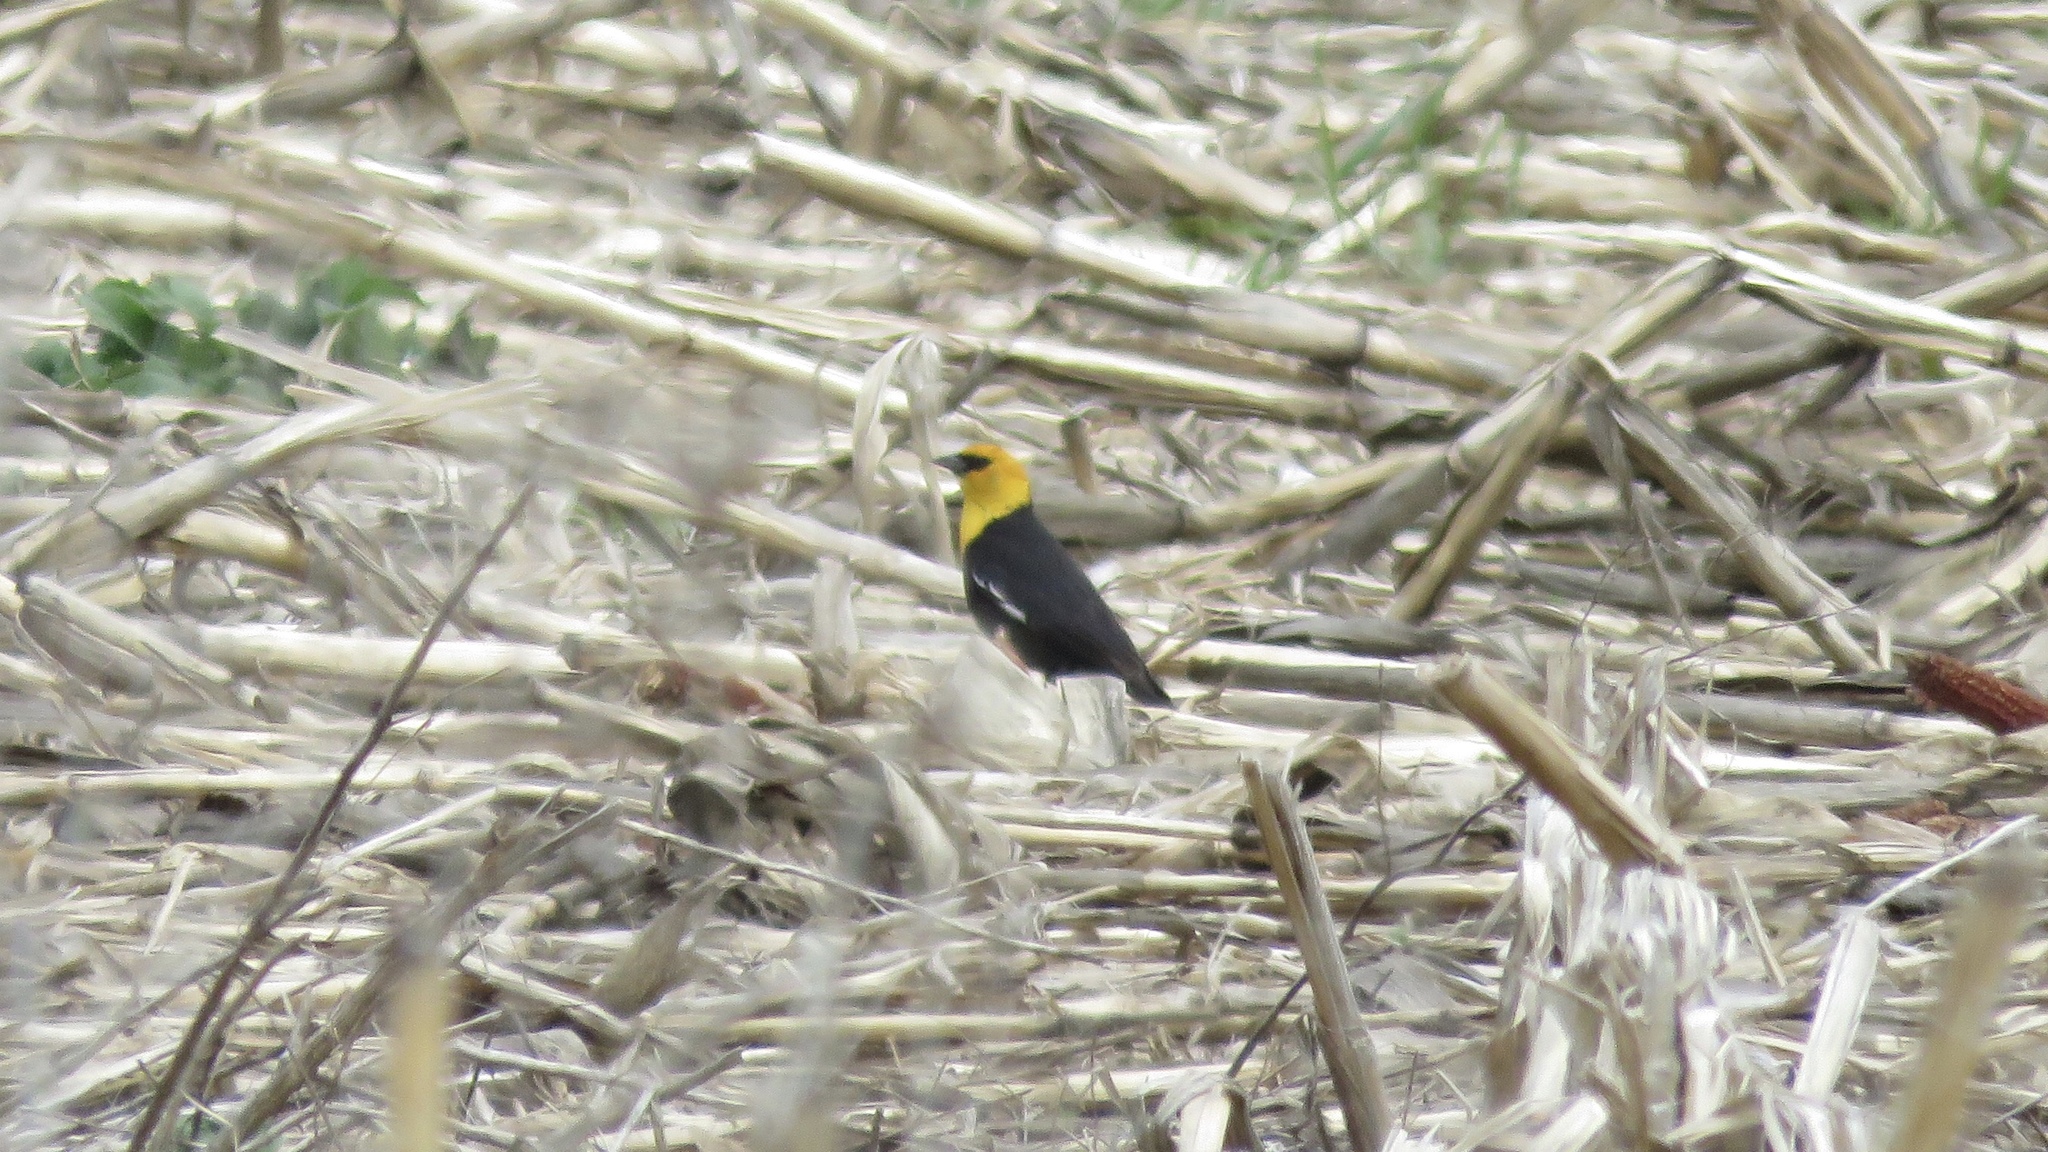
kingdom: Animalia
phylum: Chordata
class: Aves
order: Passeriformes
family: Icteridae
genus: Xanthocephalus
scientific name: Xanthocephalus xanthocephalus
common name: Yellow-headed blackbird
